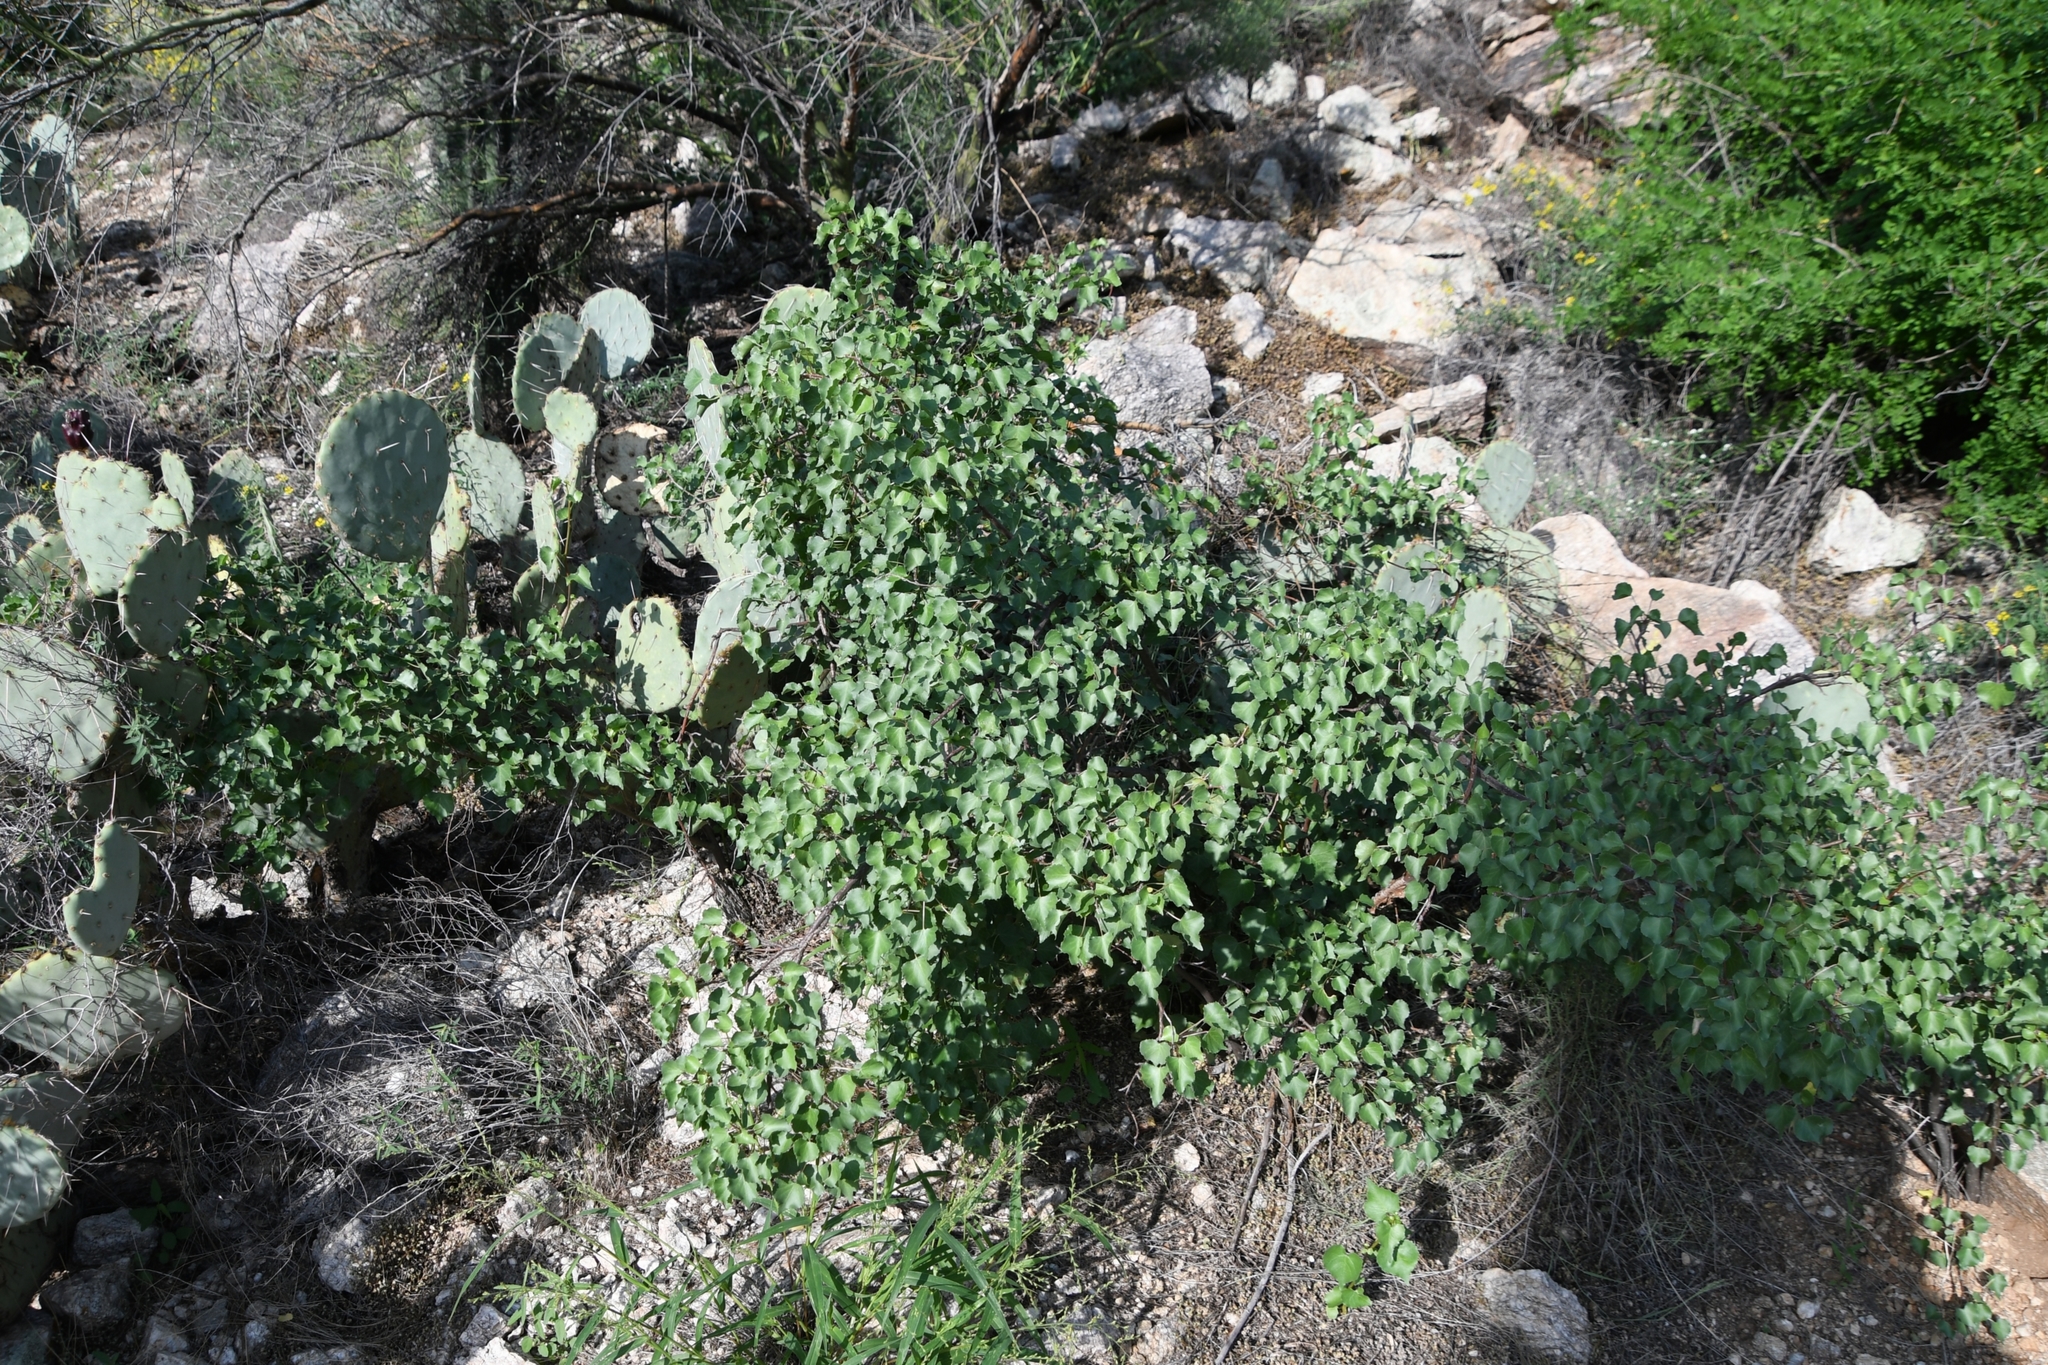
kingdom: Plantae
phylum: Tracheophyta
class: Magnoliopsida
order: Malpighiales
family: Euphorbiaceae
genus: Jatropha
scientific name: Jatropha cardiophylla
